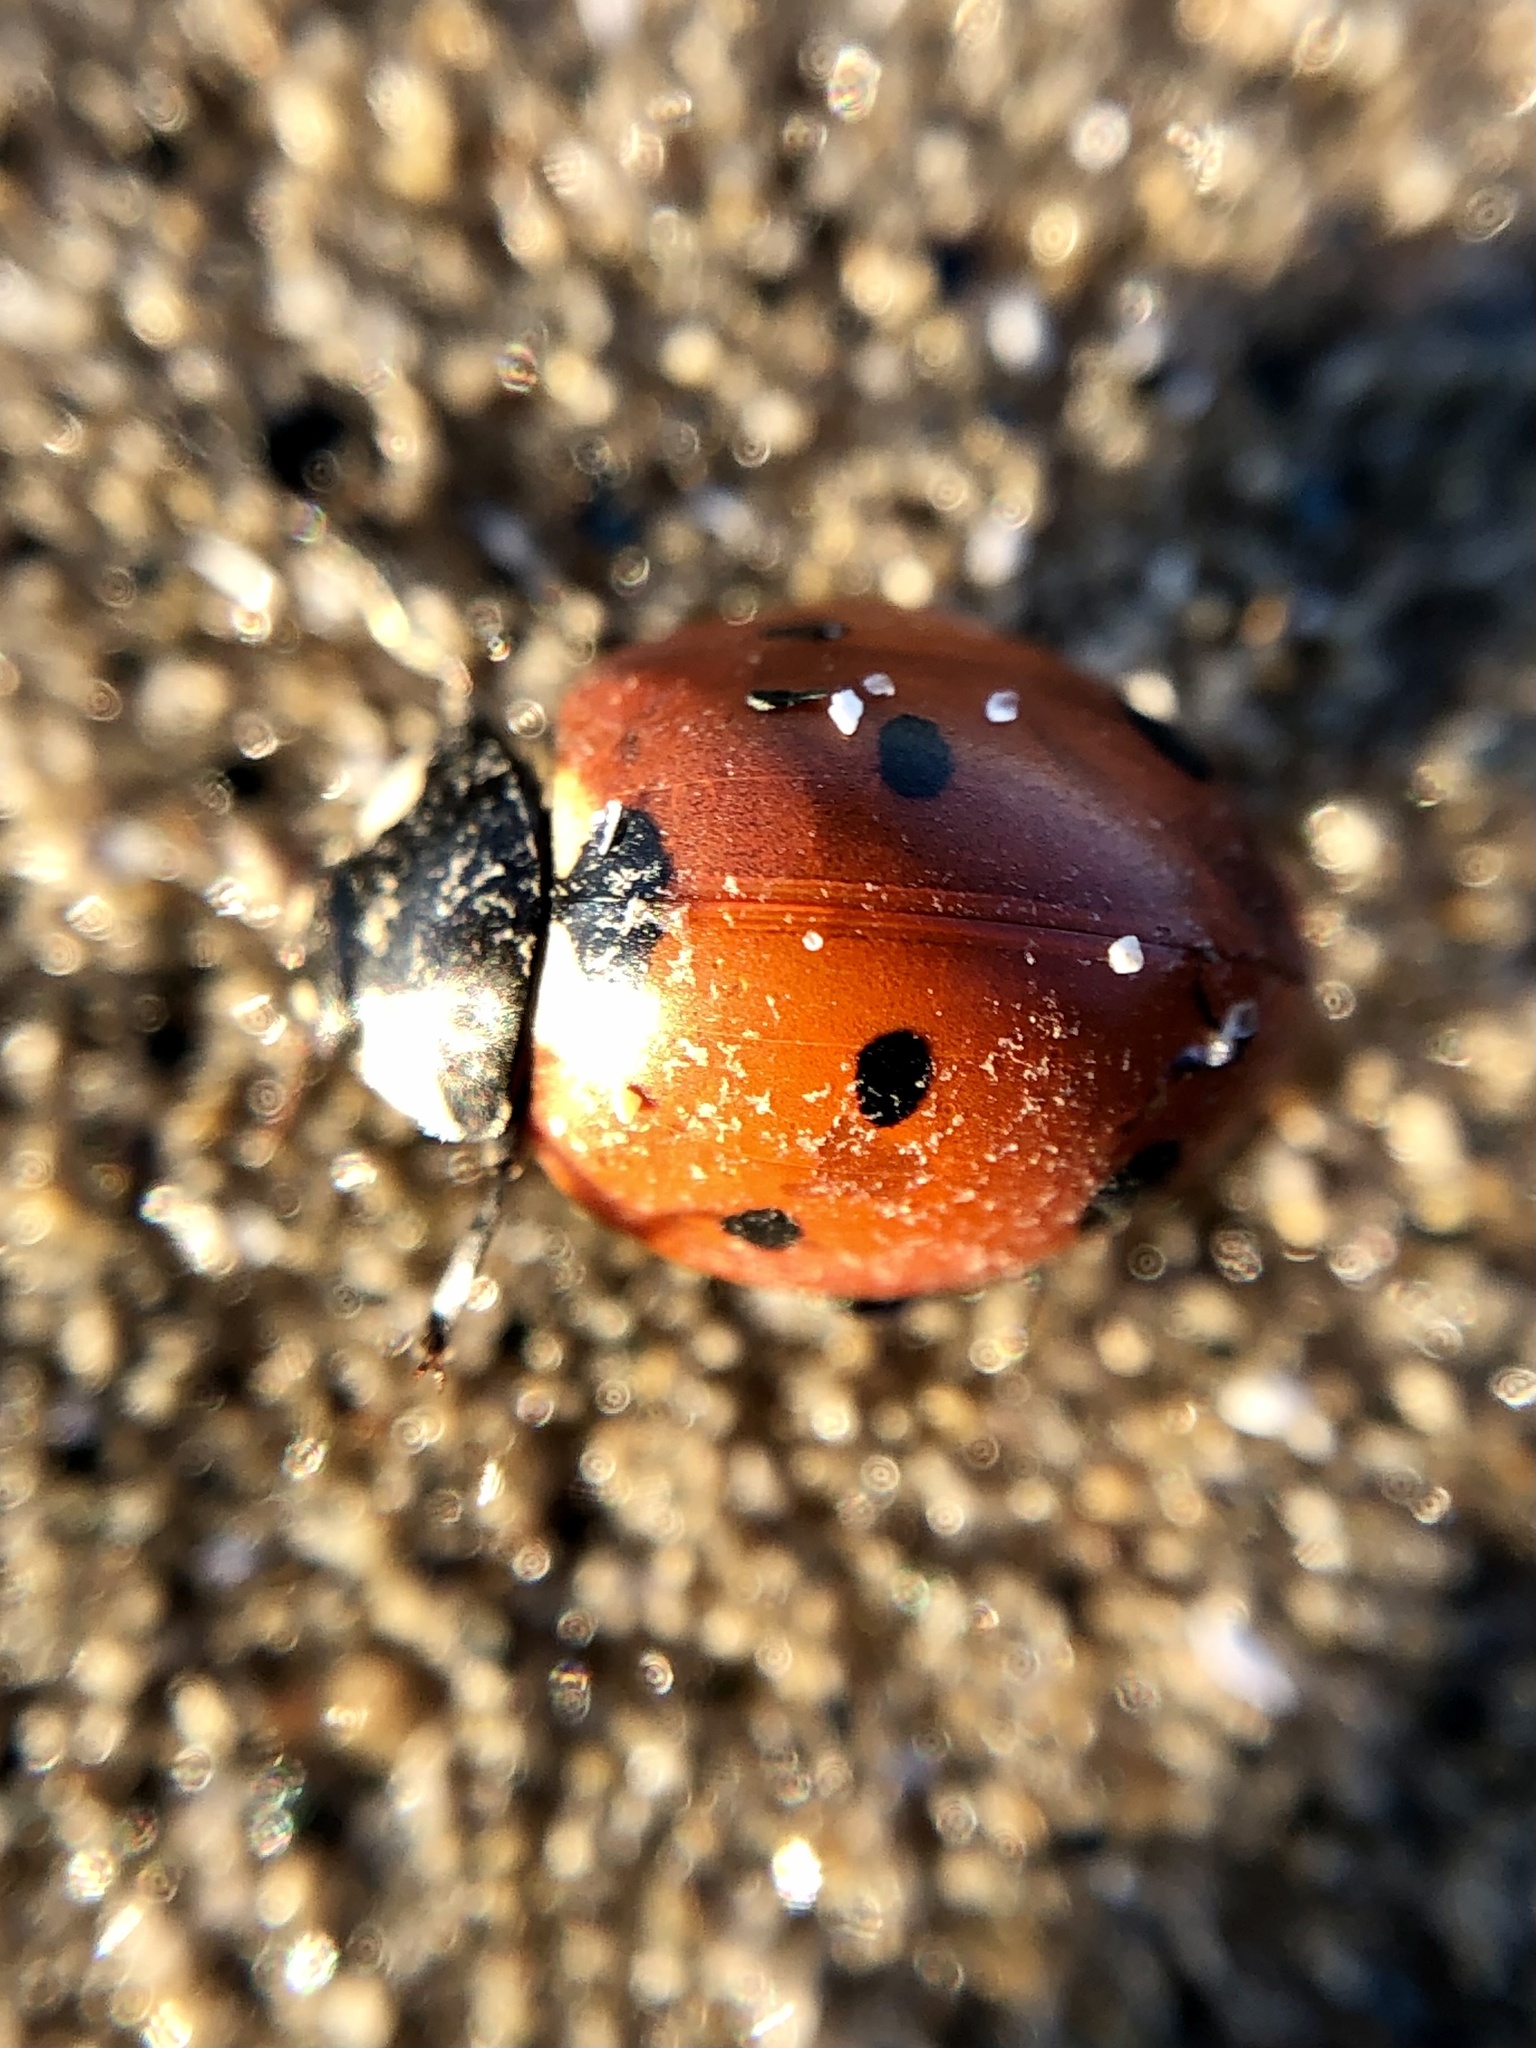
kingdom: Animalia
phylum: Arthropoda
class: Insecta
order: Coleoptera
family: Coccinellidae
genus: Coccinella
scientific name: Coccinella septempunctata
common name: Sevenspotted lady beetle
